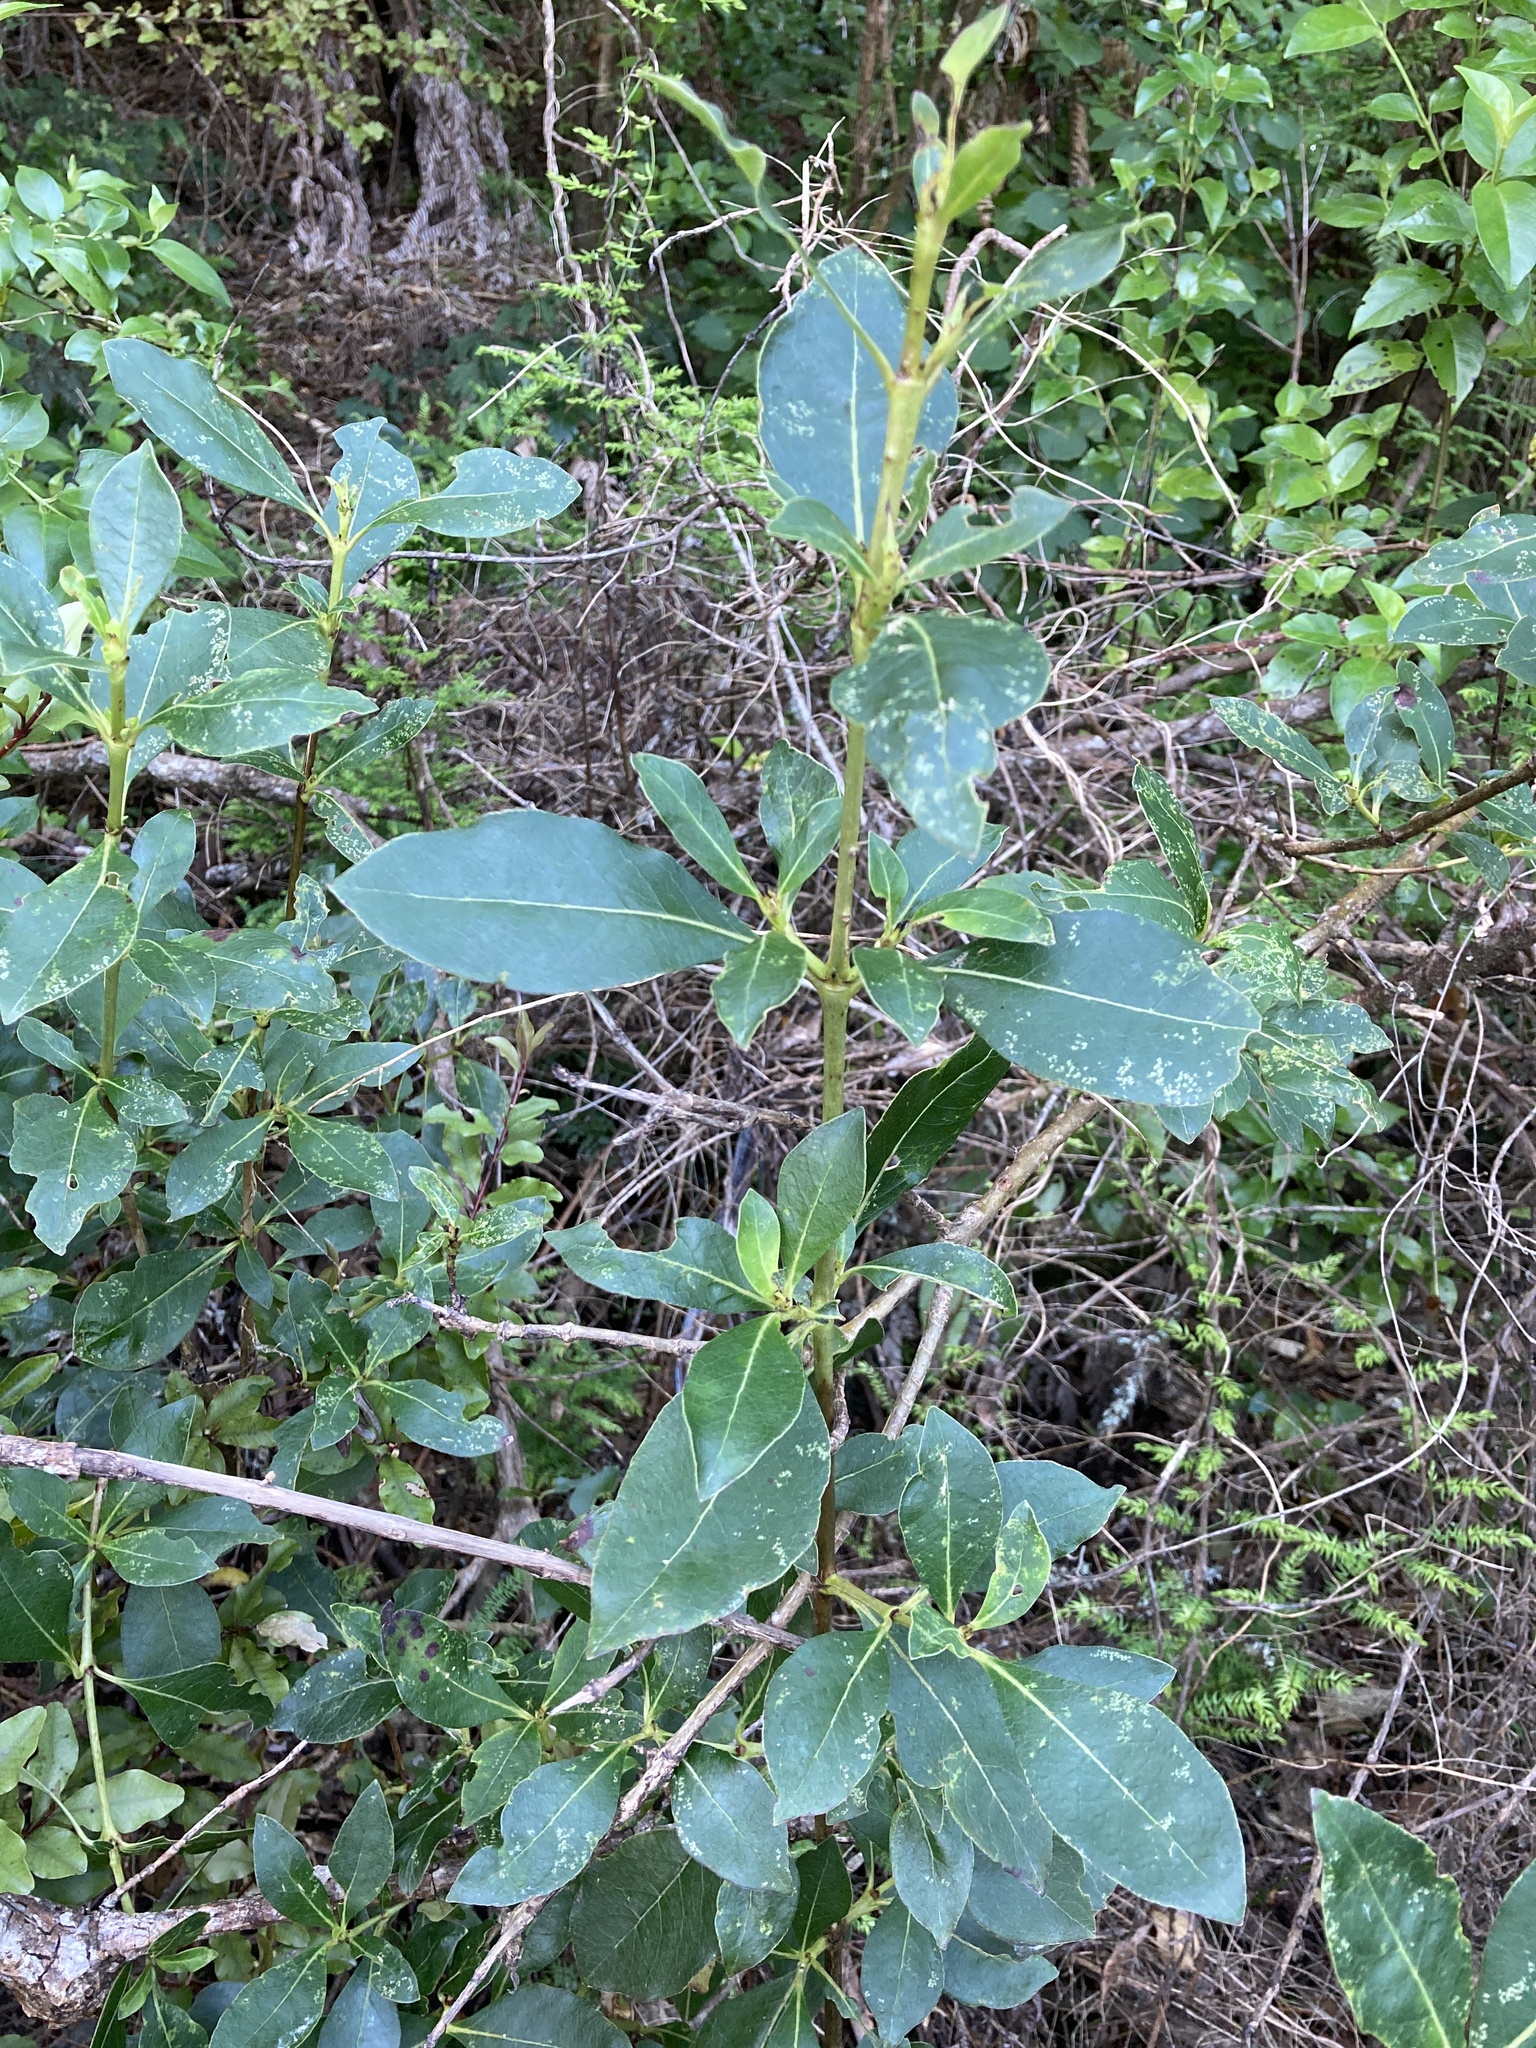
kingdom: Plantae
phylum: Tracheophyta
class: Magnoliopsida
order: Gentianales
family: Rubiaceae
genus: Coprosma
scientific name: Coprosma robusta
